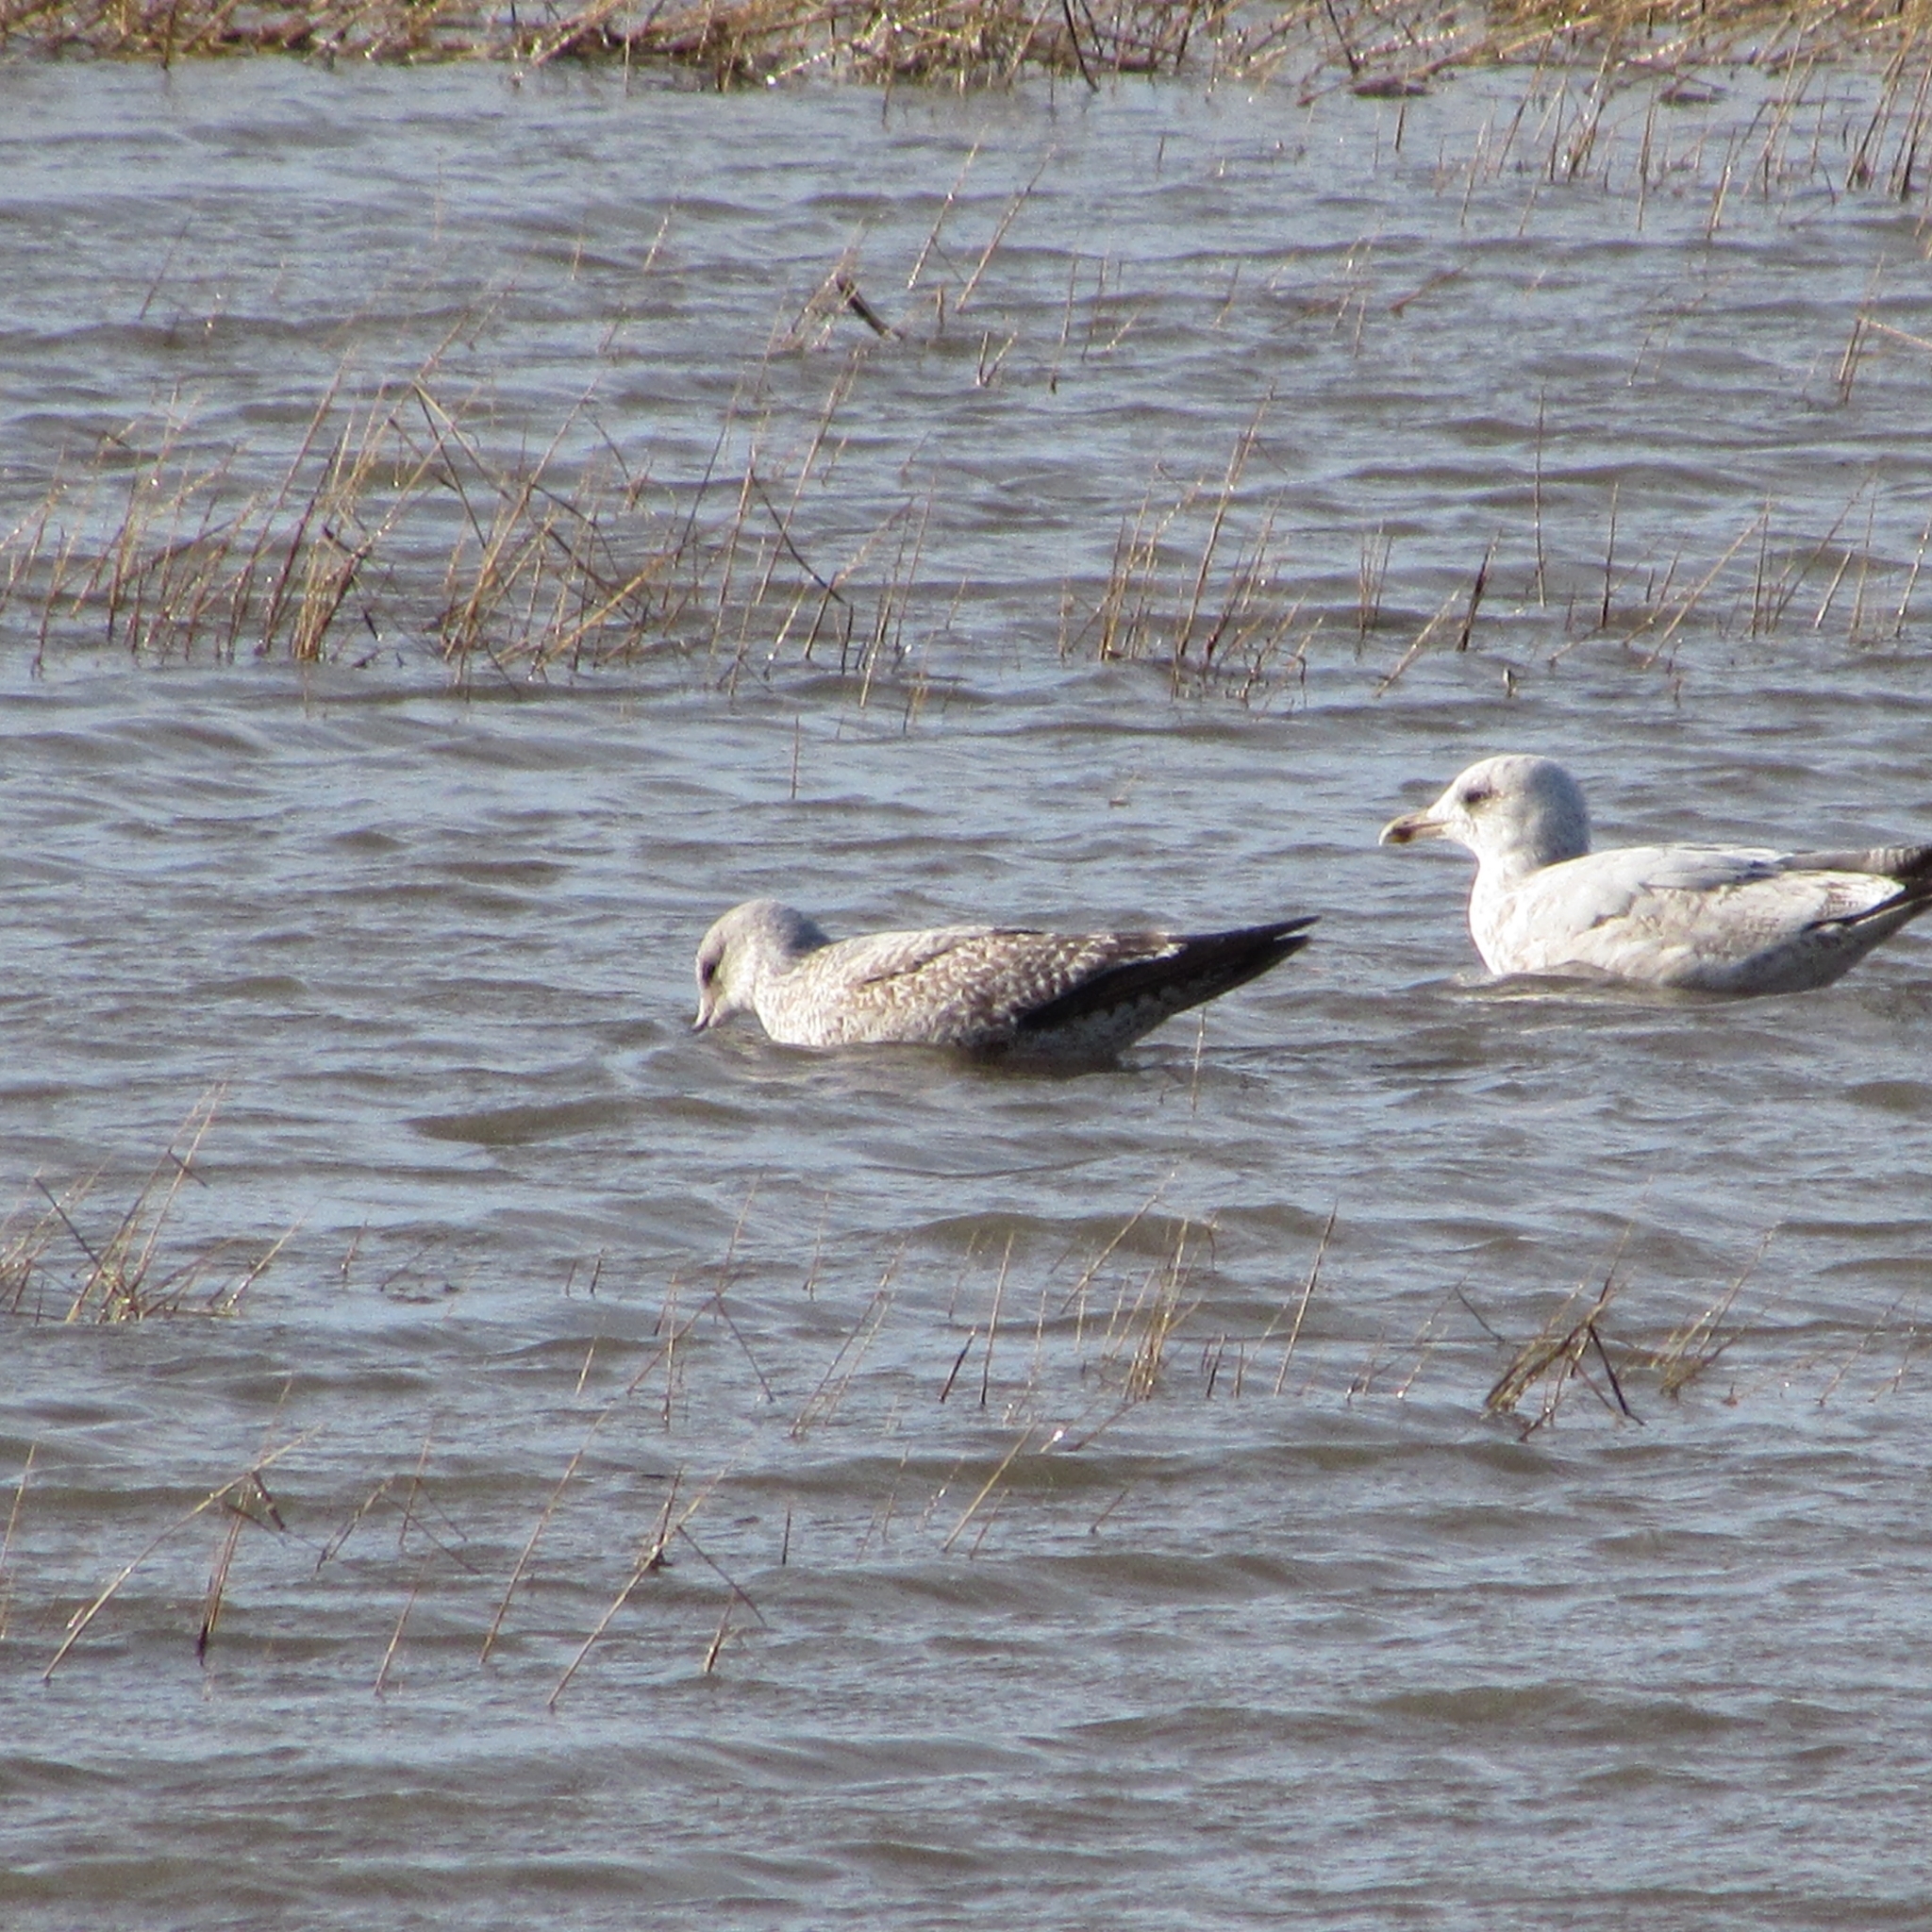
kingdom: Animalia
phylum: Chordata
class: Aves
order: Charadriiformes
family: Laridae
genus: Larus
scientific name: Larus argentatus
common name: Herring gull
